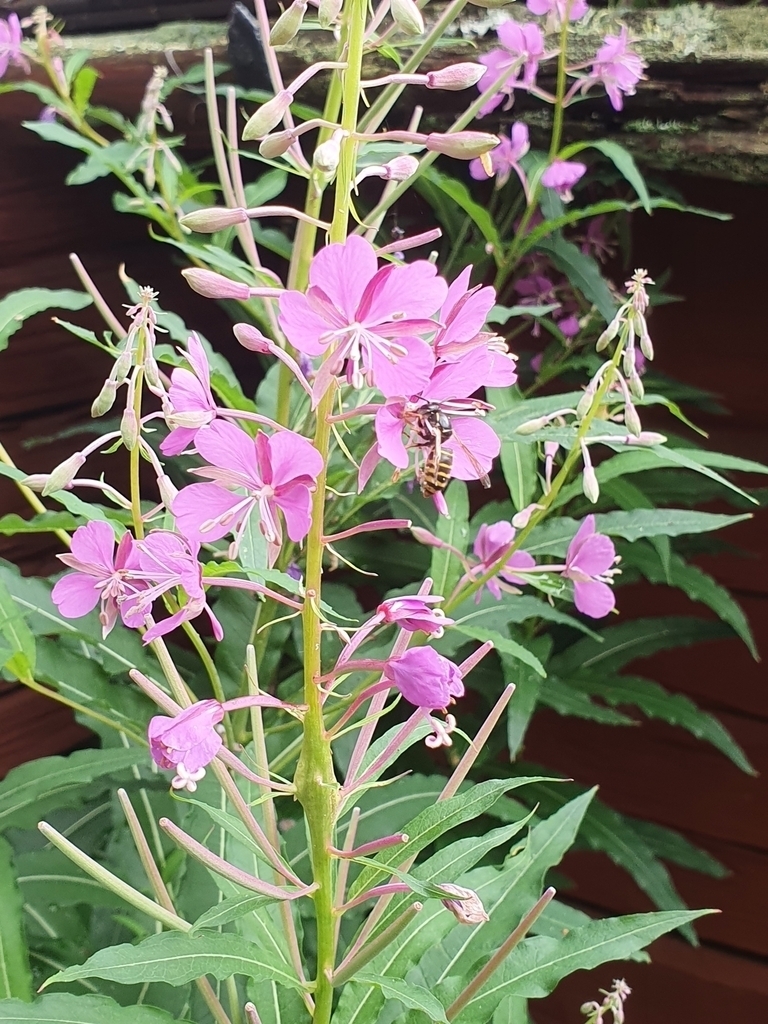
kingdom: Plantae
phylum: Tracheophyta
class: Magnoliopsida
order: Myrtales
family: Onagraceae
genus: Chamaenerion
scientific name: Chamaenerion angustifolium
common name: Fireweed
